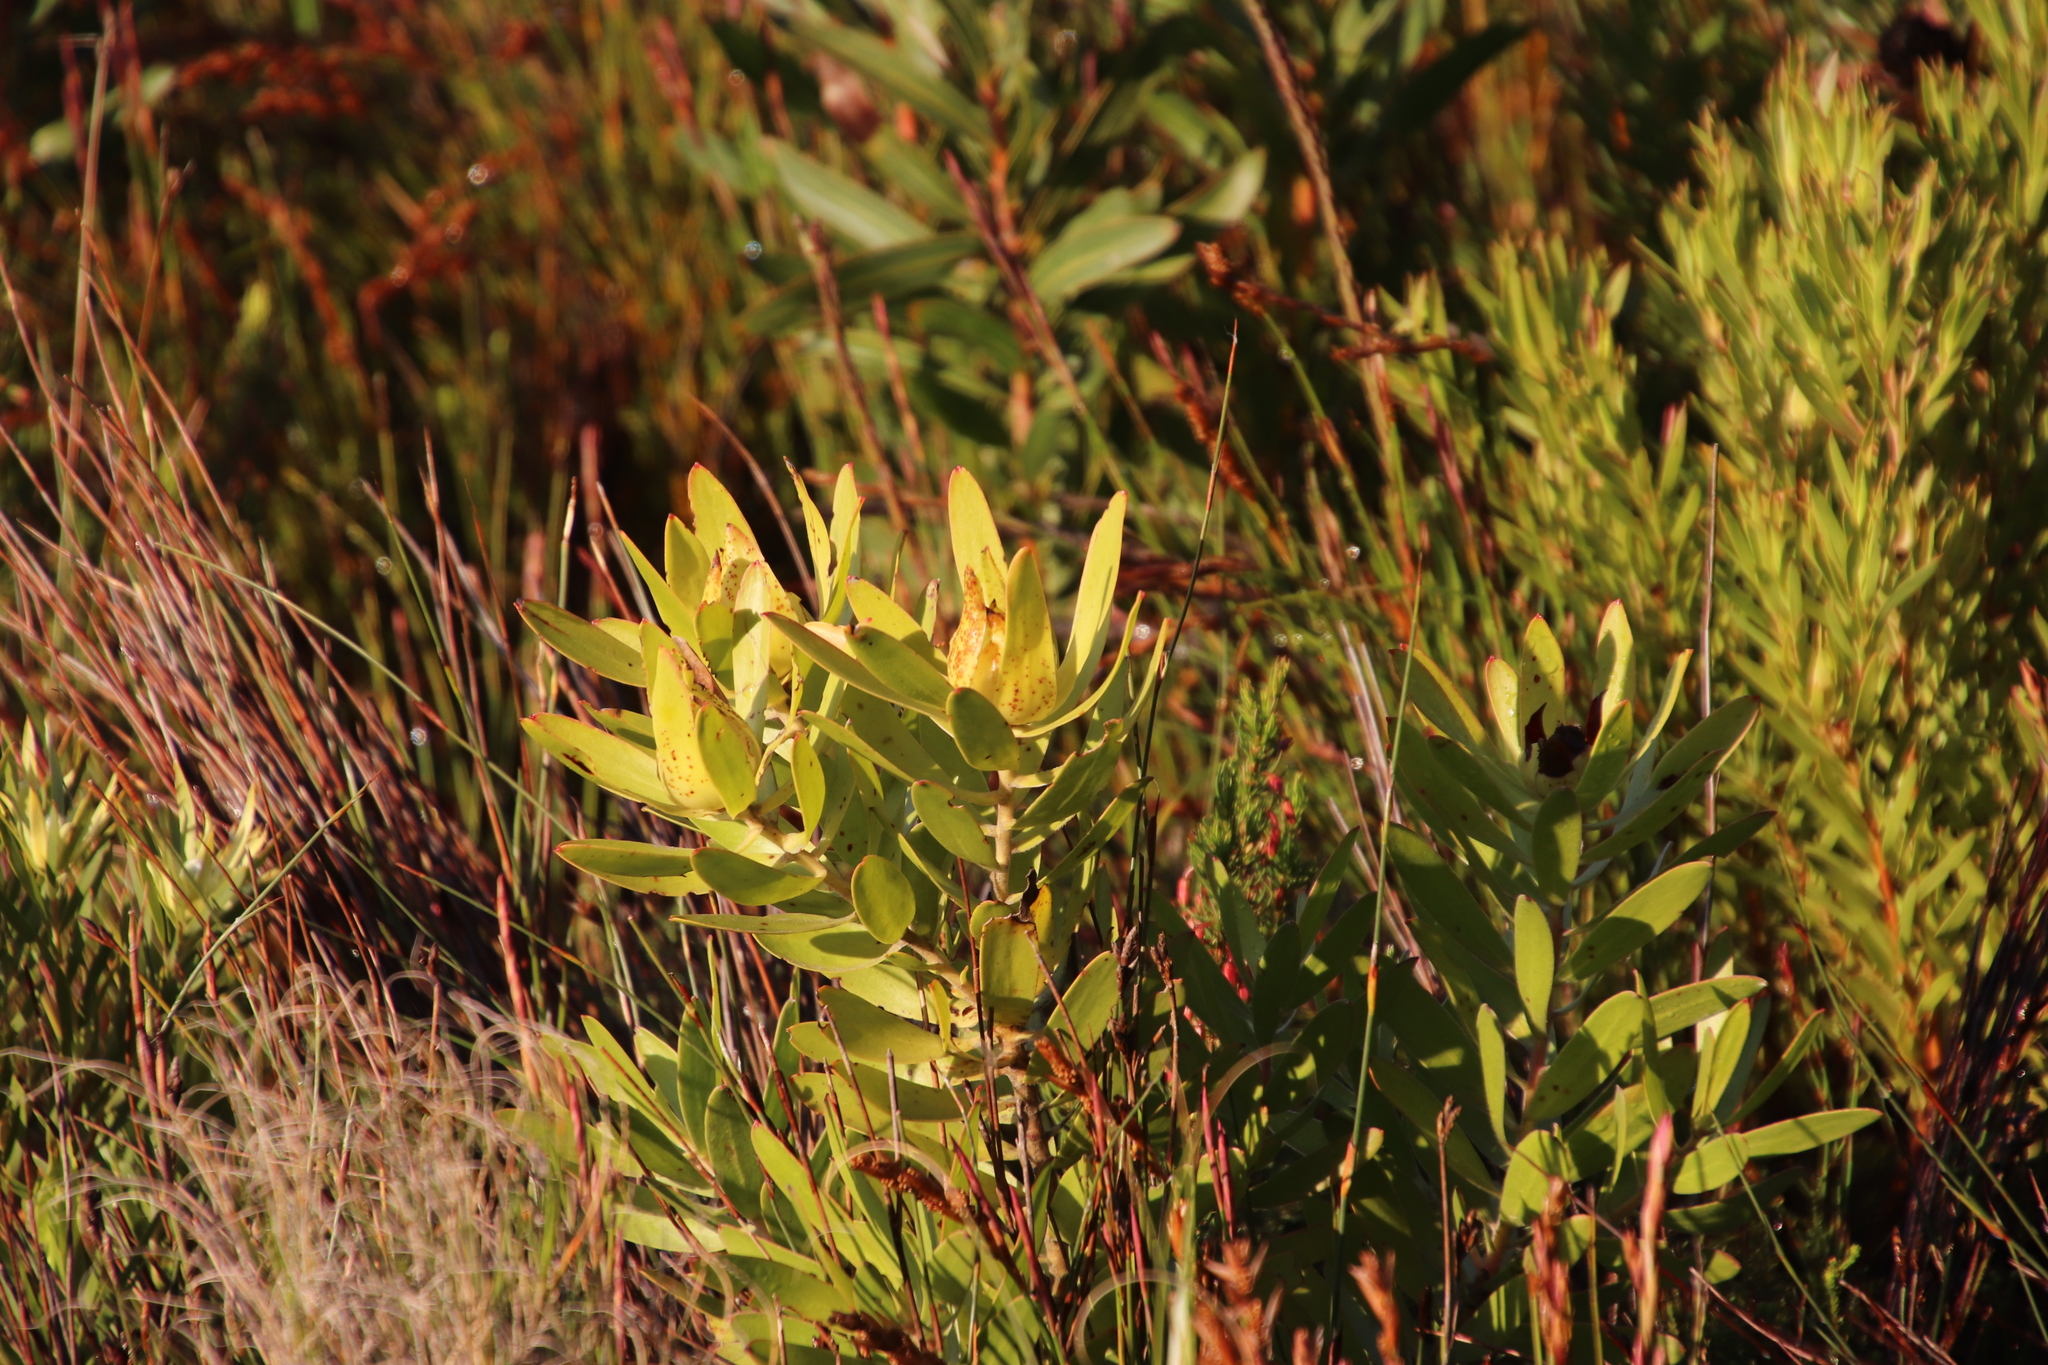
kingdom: Plantae
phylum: Tracheophyta
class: Magnoliopsida
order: Proteales
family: Proteaceae
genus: Leucadendron
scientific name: Leucadendron laureolum
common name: Golden sunshinebush
